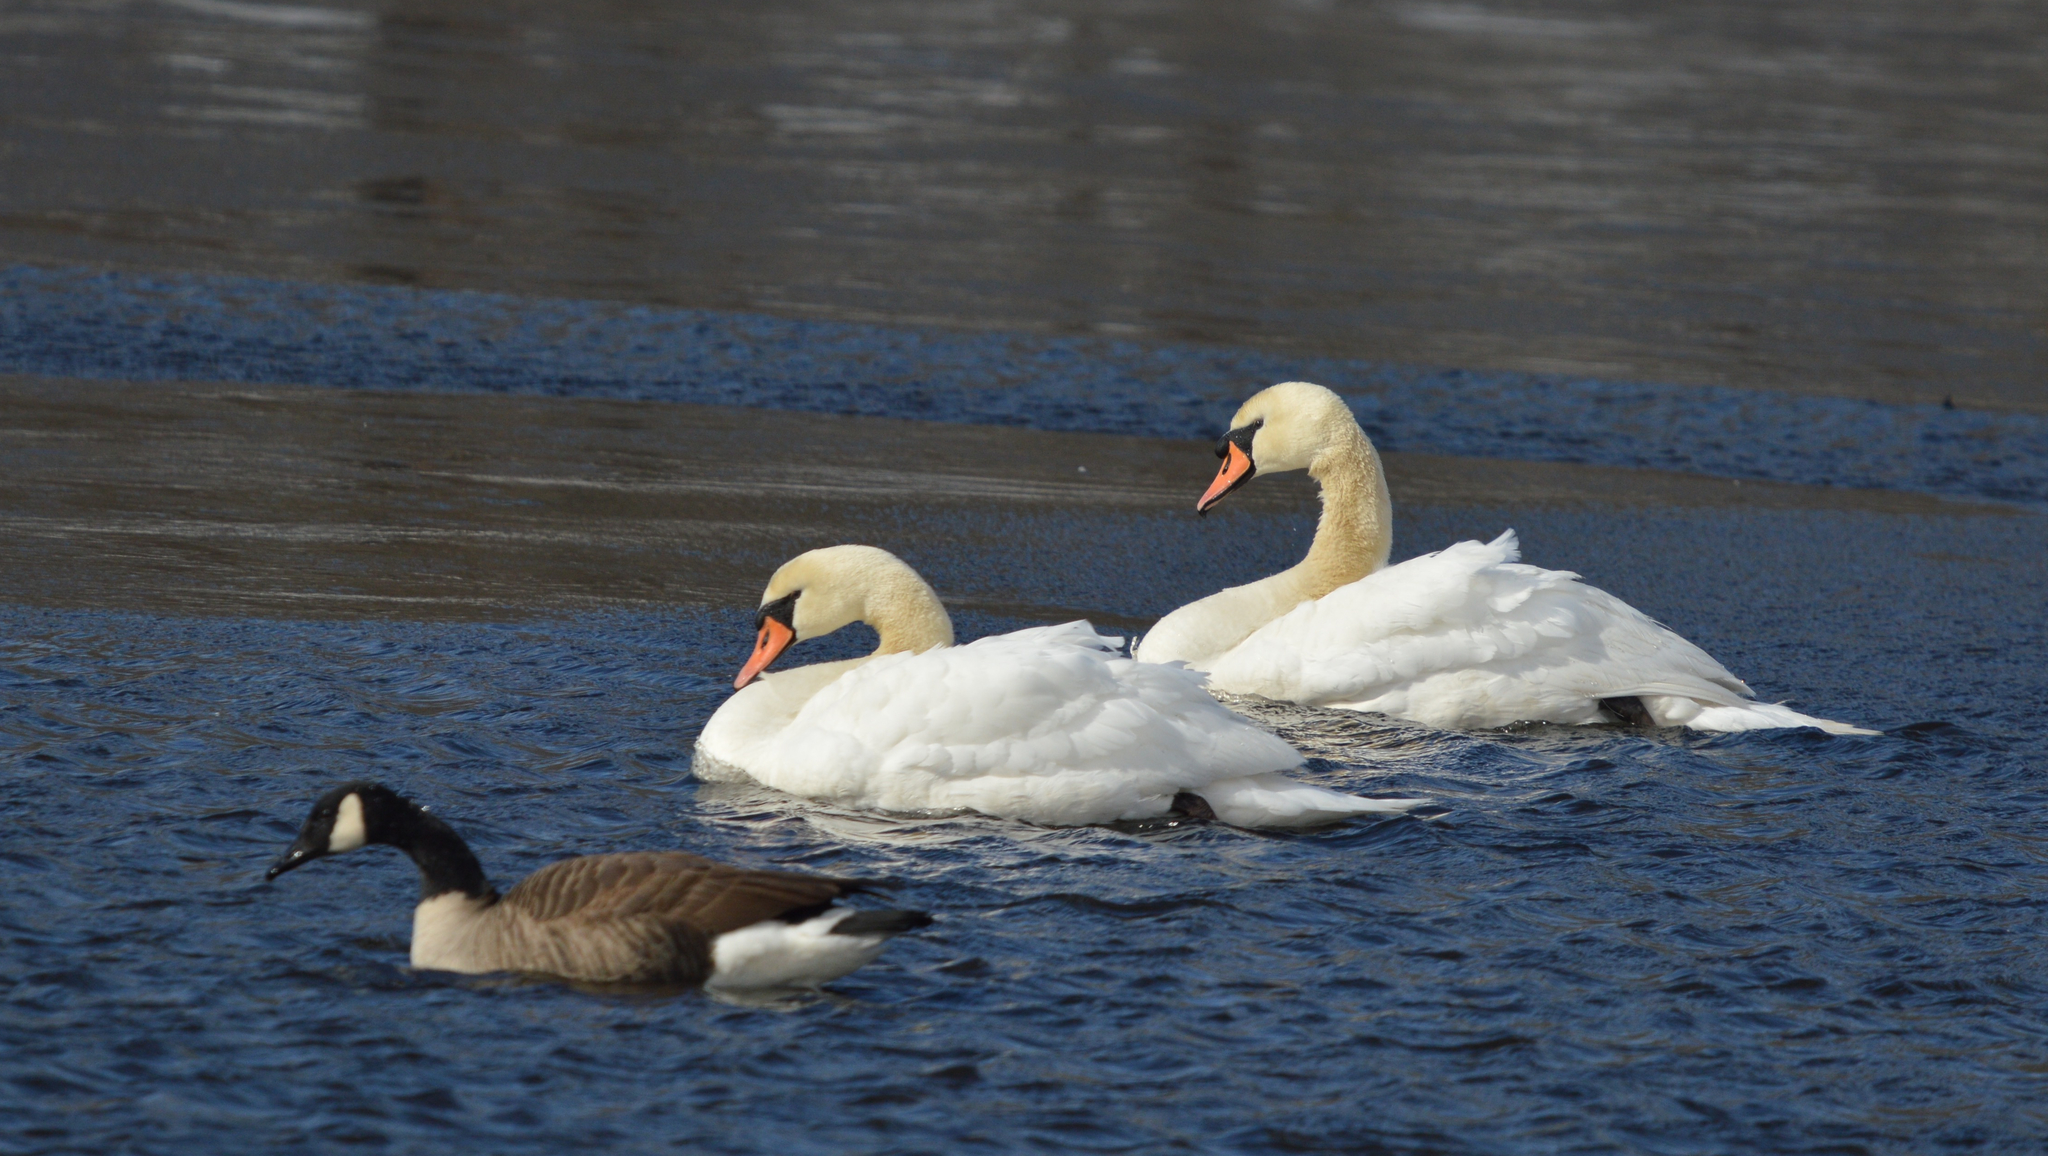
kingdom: Animalia
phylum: Chordata
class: Aves
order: Anseriformes
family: Anatidae
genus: Cygnus
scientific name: Cygnus olor
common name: Mute swan
